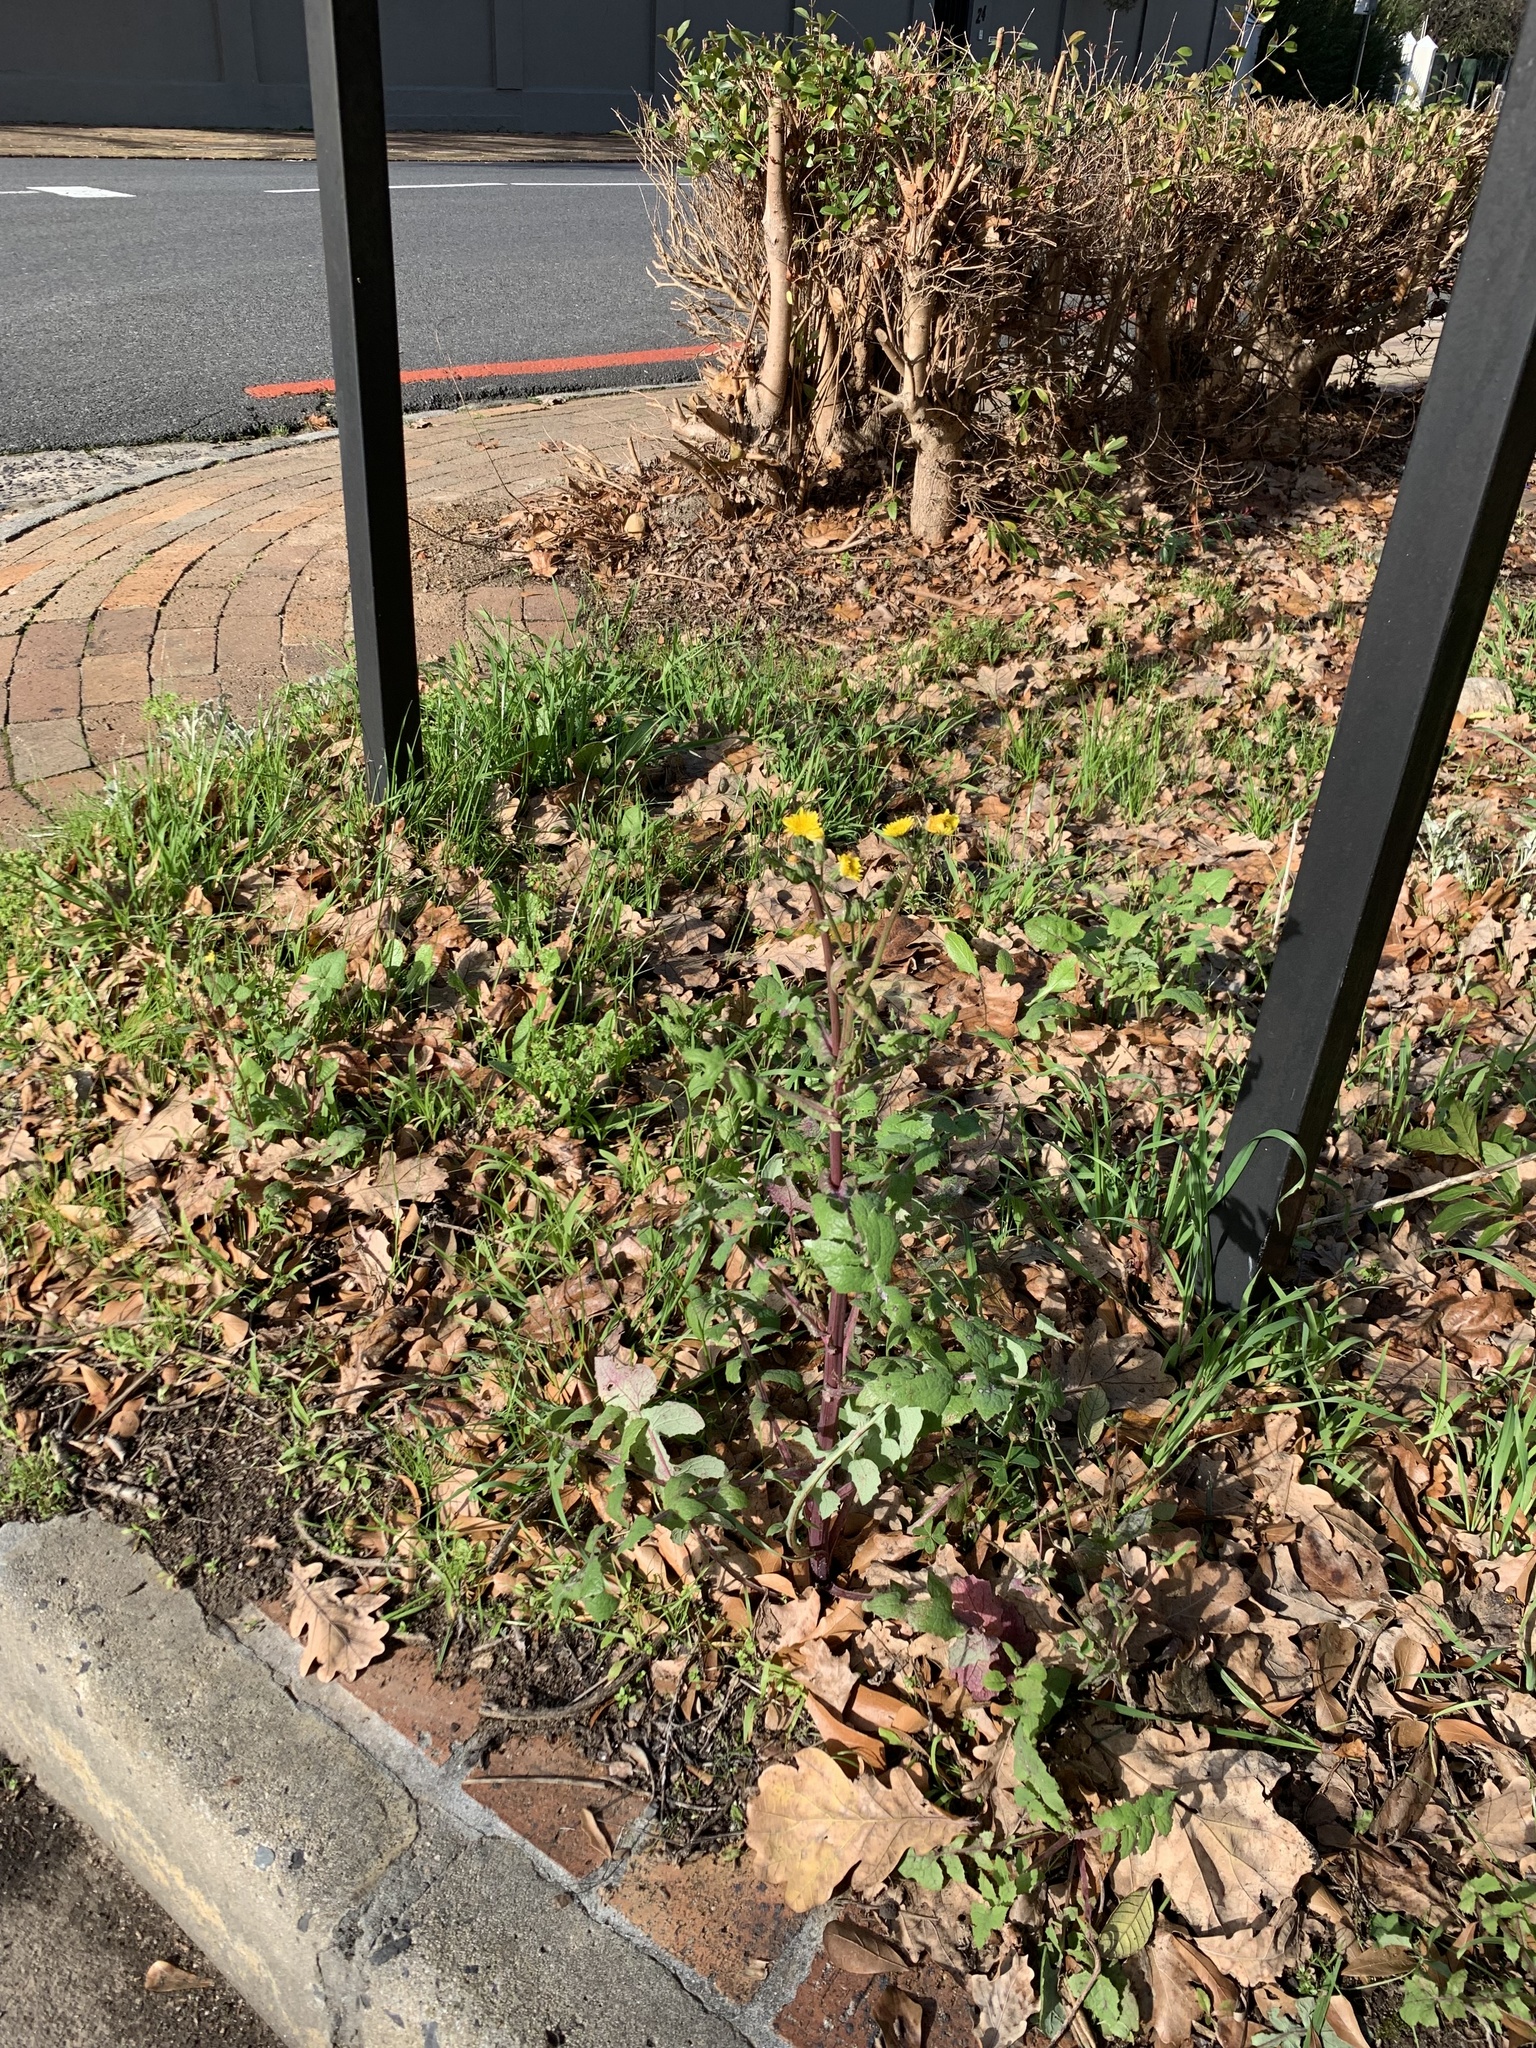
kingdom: Plantae
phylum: Tracheophyta
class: Magnoliopsida
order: Asterales
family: Asteraceae
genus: Sonchus
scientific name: Sonchus oleraceus
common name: Common sowthistle
